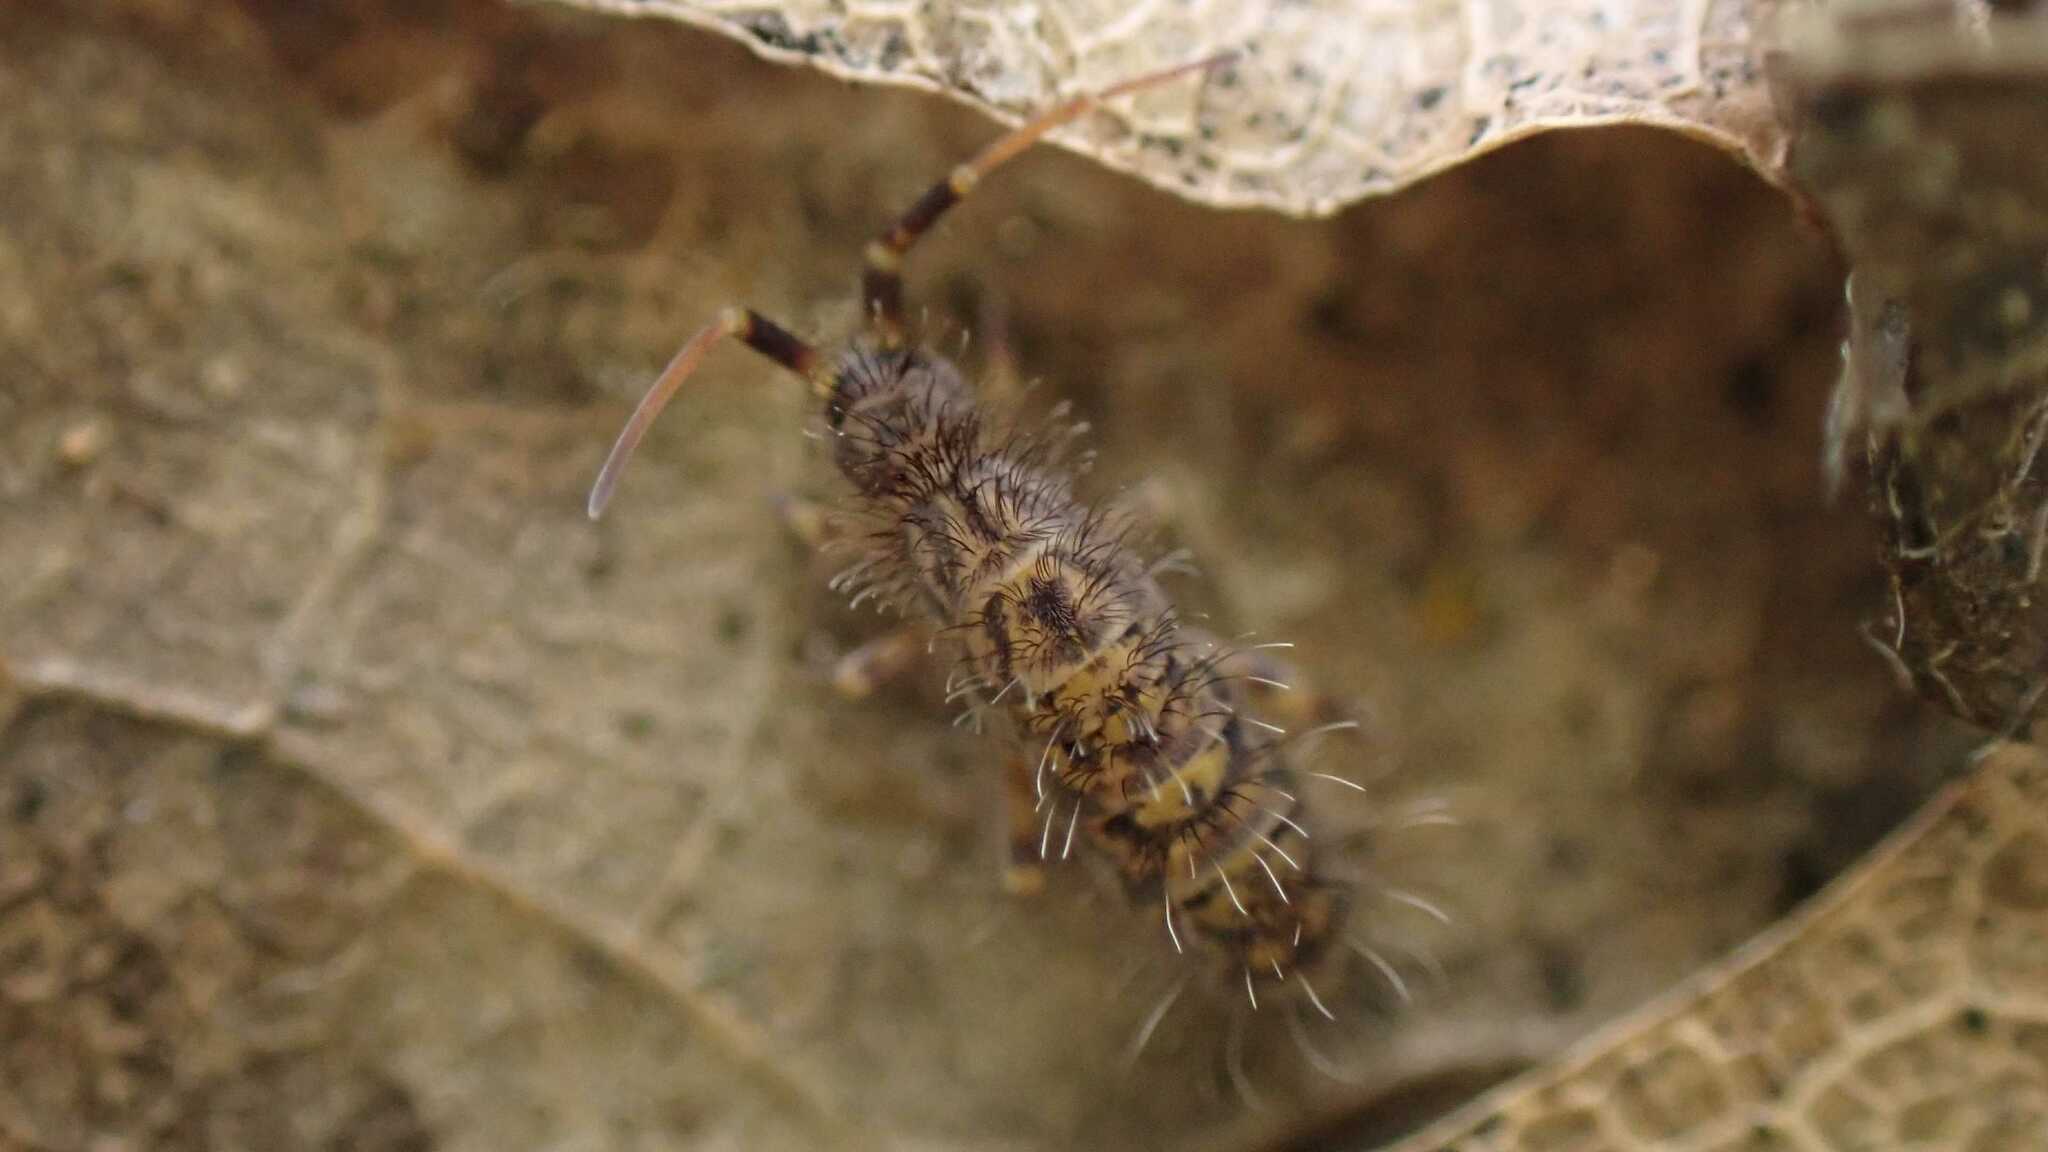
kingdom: Animalia
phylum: Arthropoda
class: Collembola
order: Entomobryomorpha
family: Orchesellidae
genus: Orchesella
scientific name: Orchesella villosa
